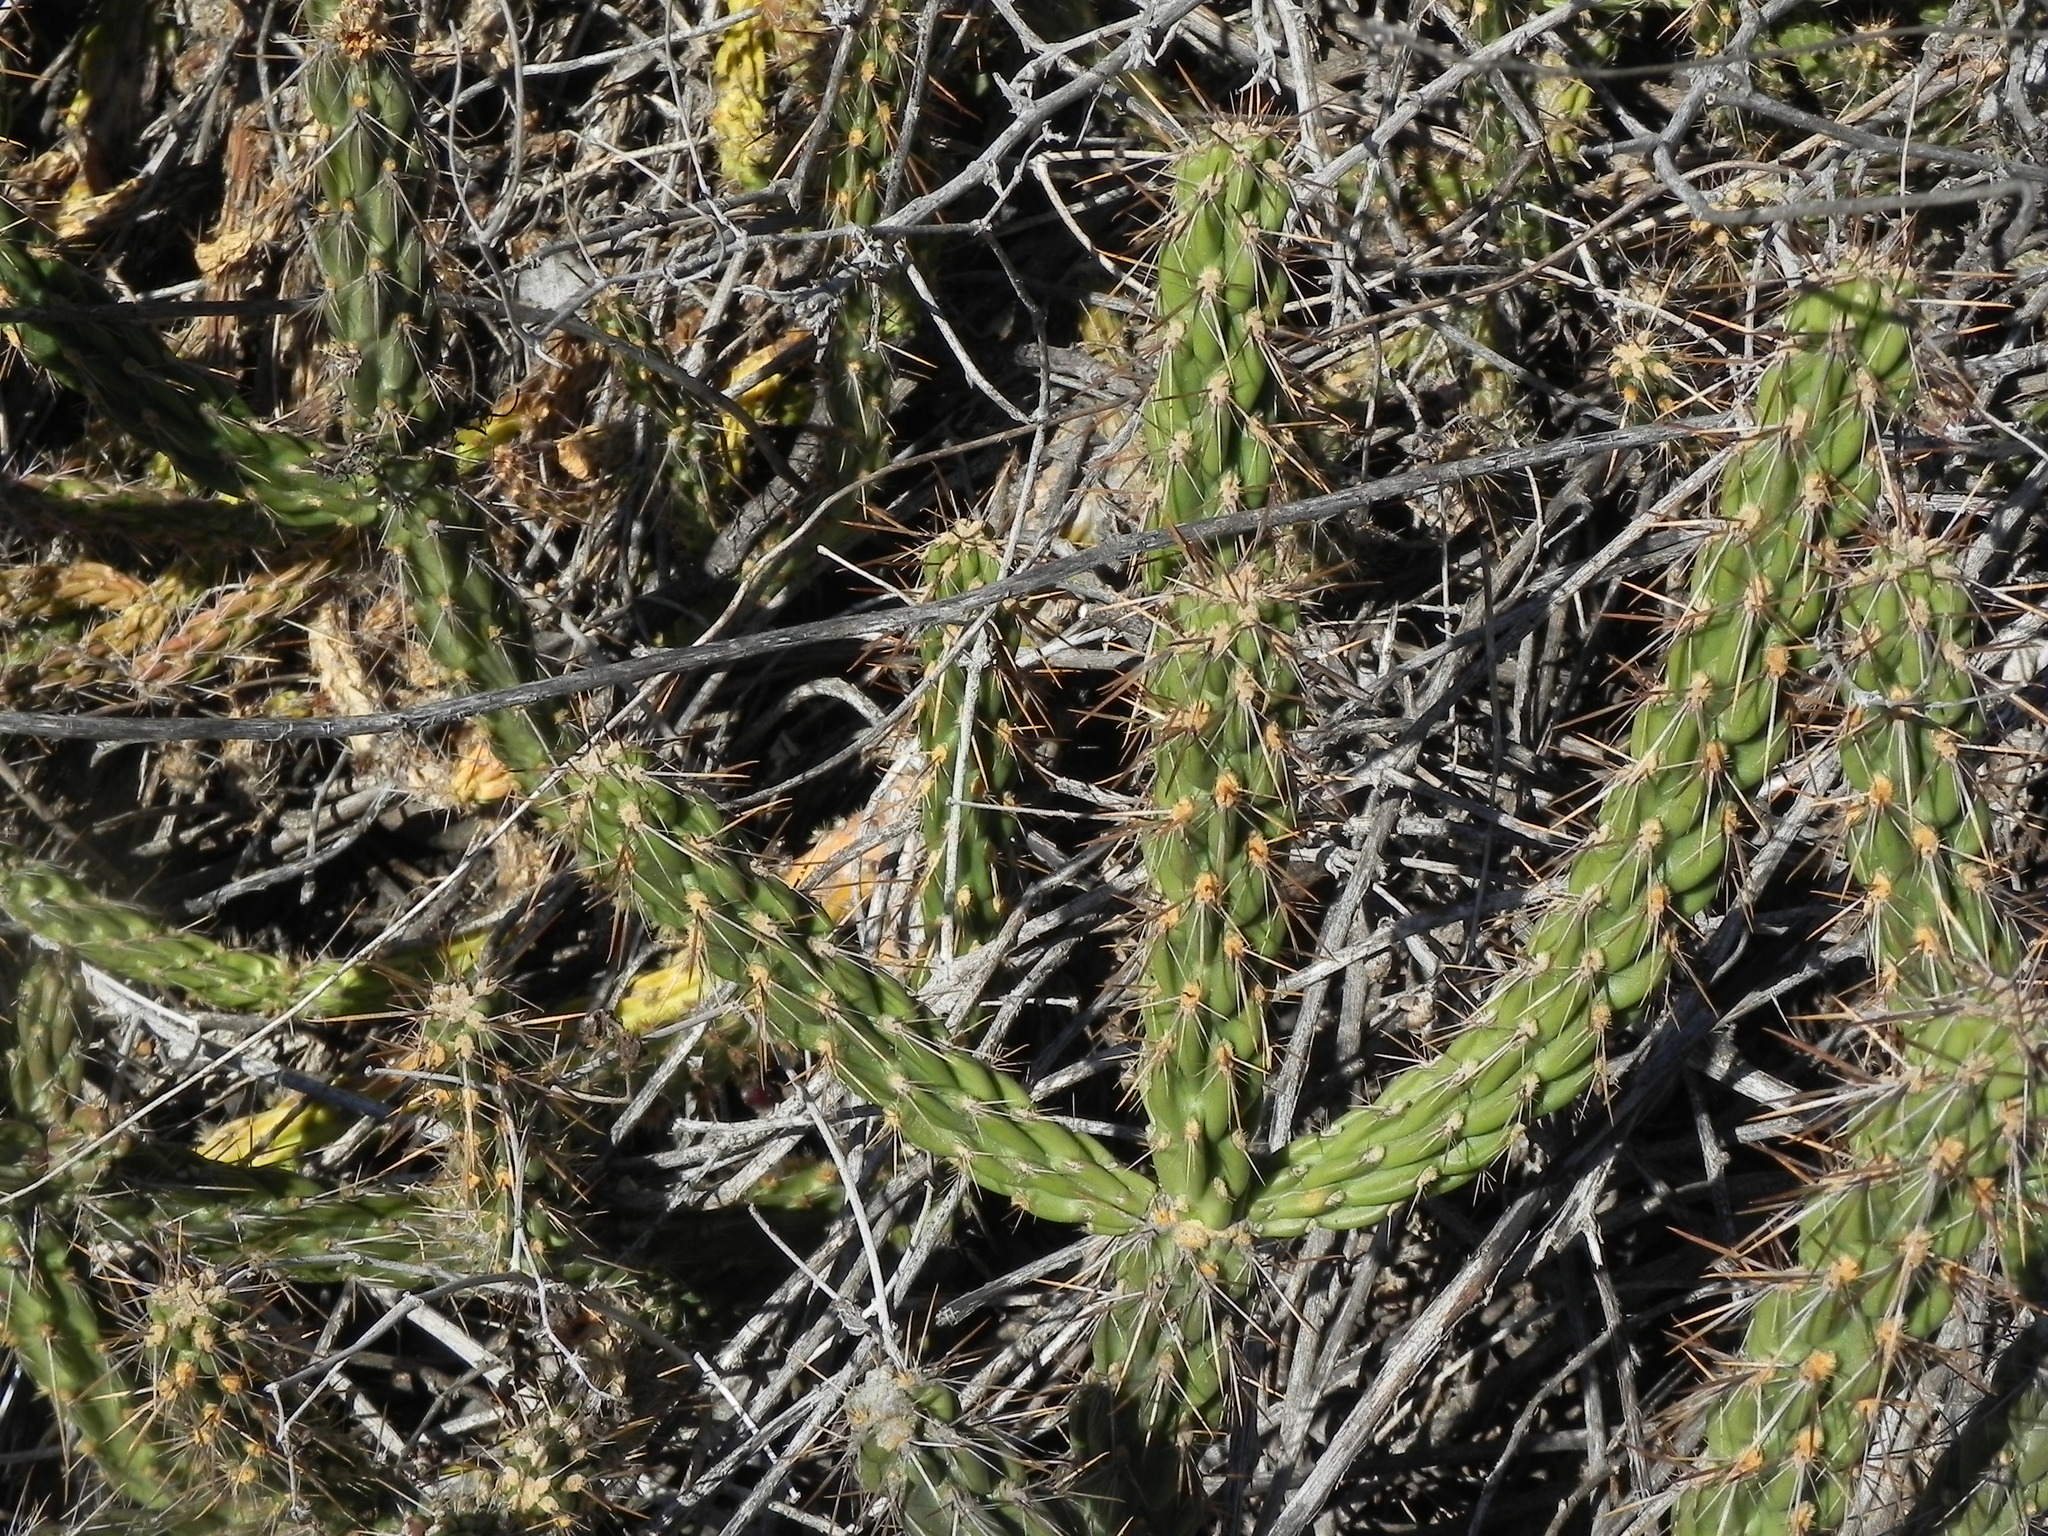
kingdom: Plantae
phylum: Tracheophyta
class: Magnoliopsida
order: Caryophyllales
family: Cactaceae
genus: Cylindropuntia
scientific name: Cylindropuntia californica
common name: Snake cholla
